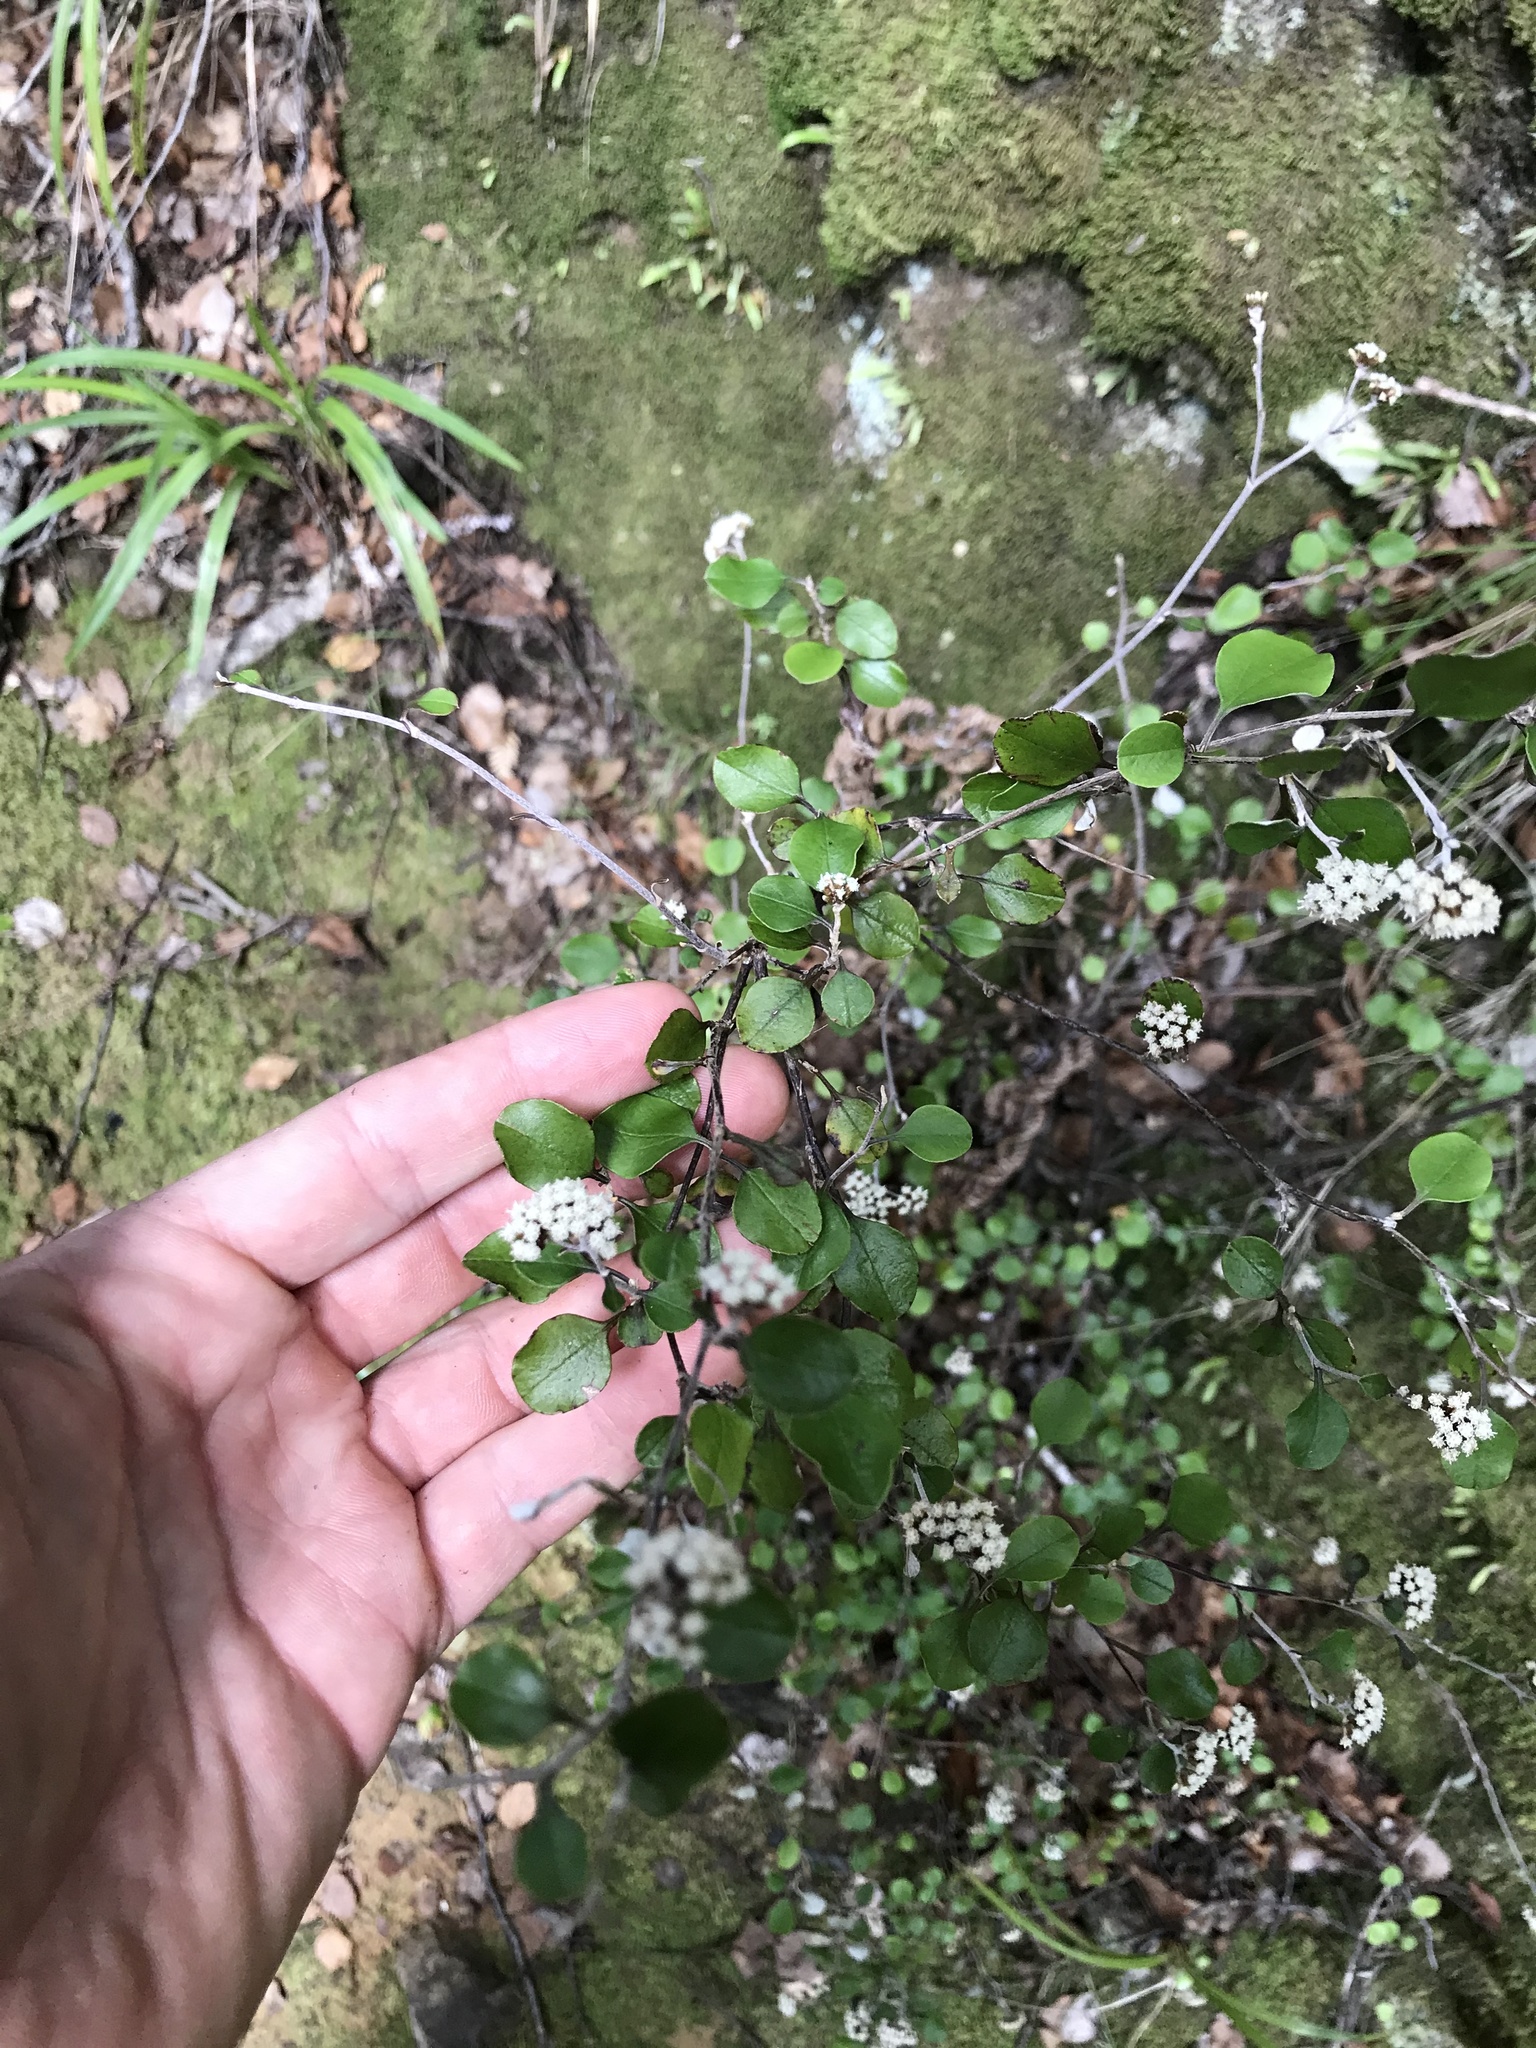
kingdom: Plantae
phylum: Tracheophyta
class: Magnoliopsida
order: Asterales
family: Asteraceae
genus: Ozothamnus
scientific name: Ozothamnus glomeratus
